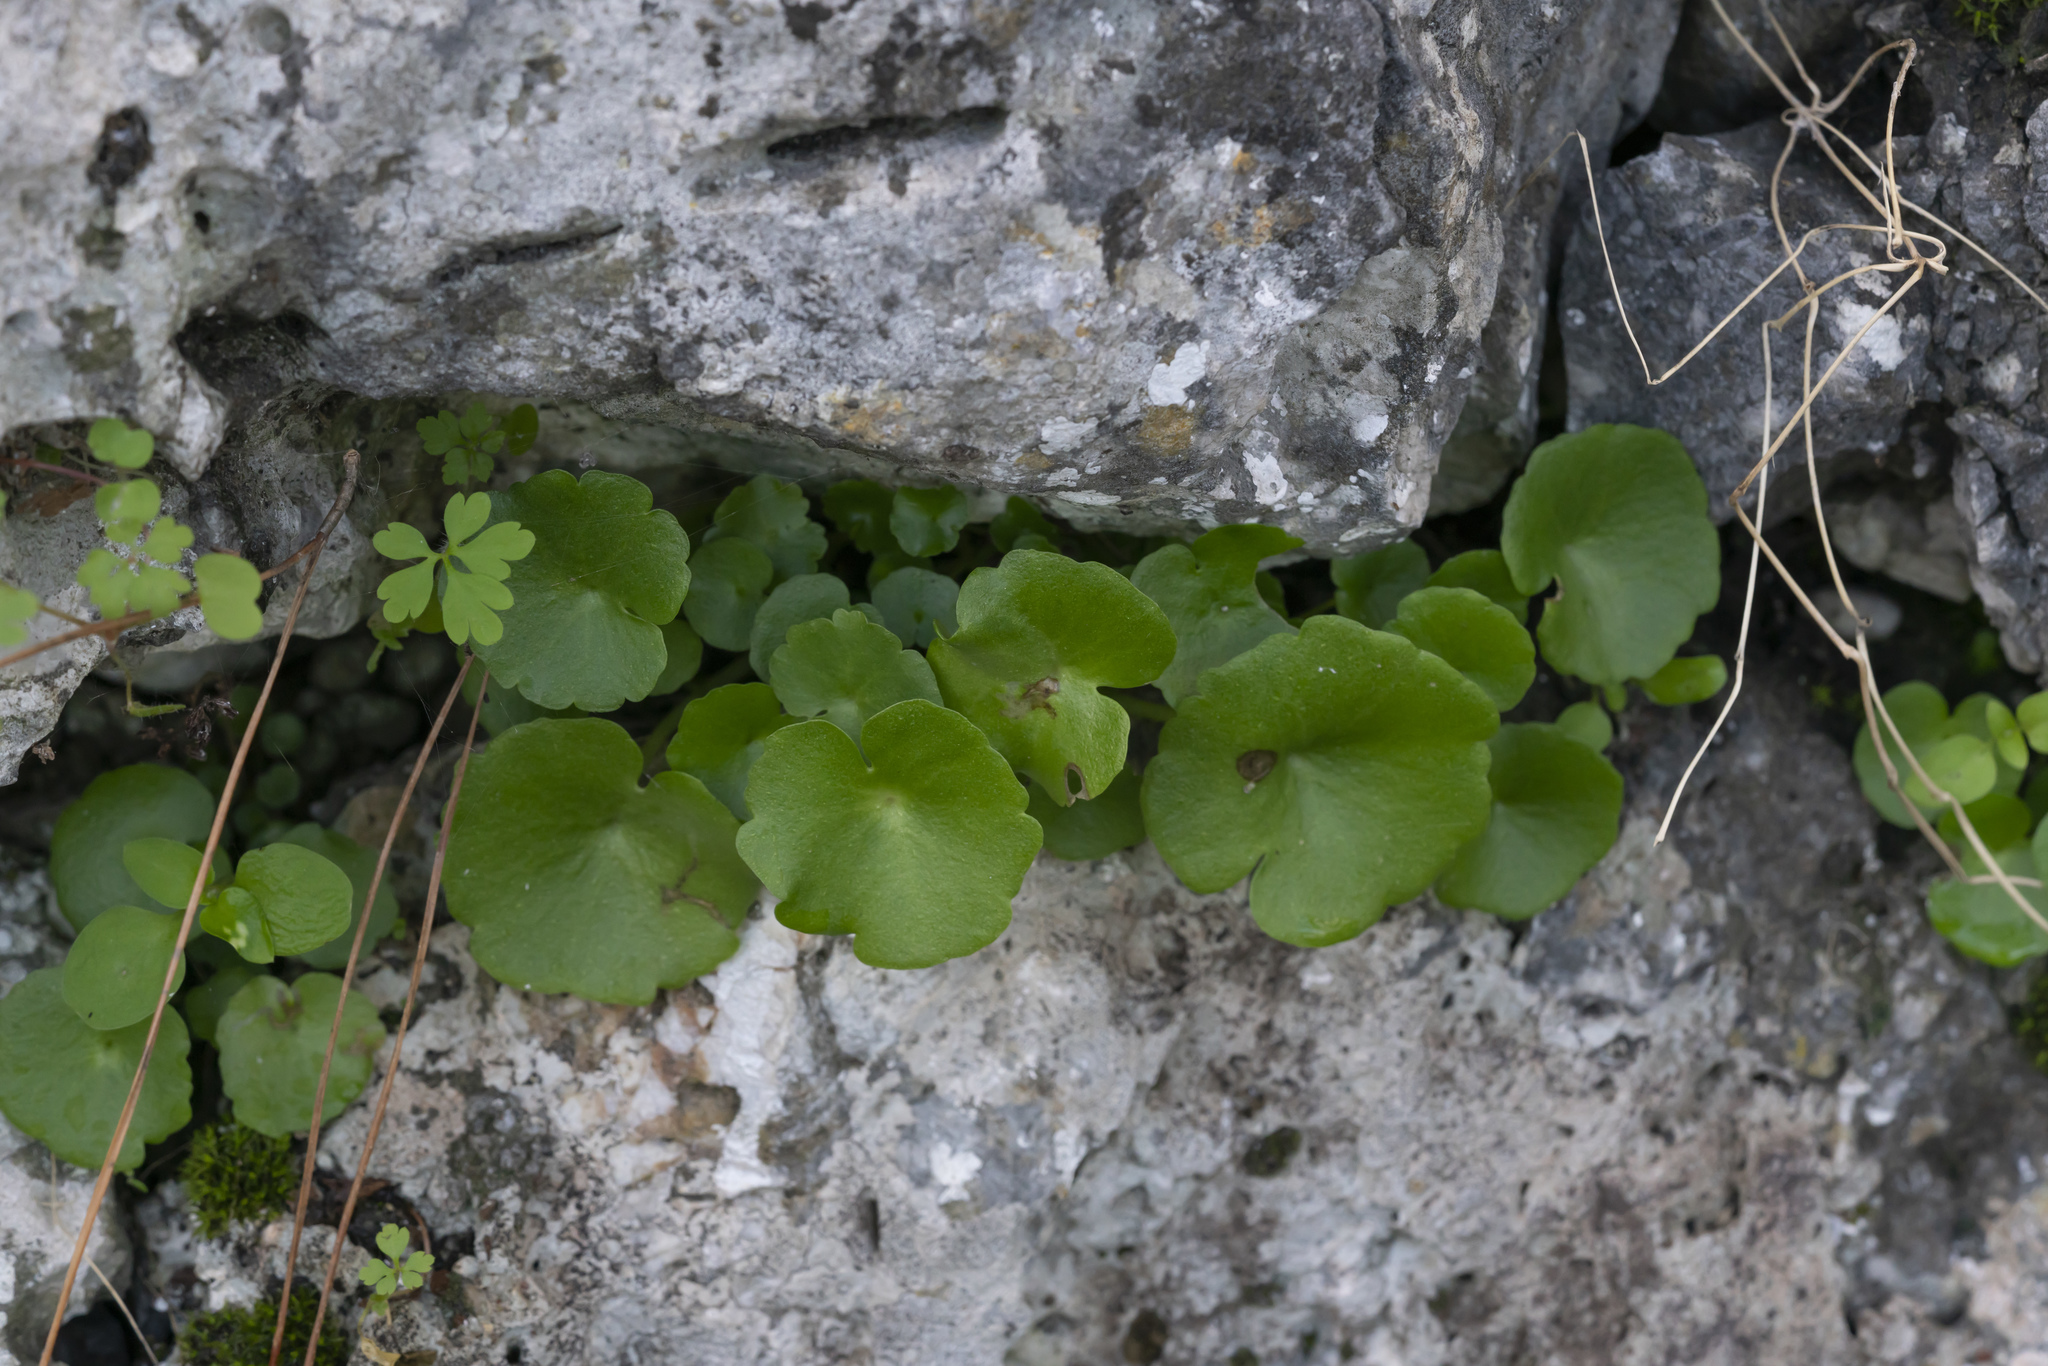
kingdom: Plantae
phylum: Tracheophyta
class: Magnoliopsida
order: Saxifragales
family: Crassulaceae
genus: Umbilicus
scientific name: Umbilicus
